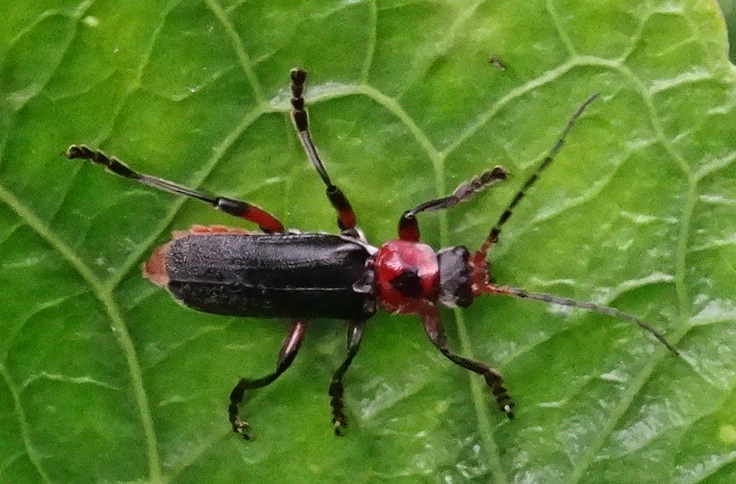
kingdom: Animalia
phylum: Arthropoda
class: Insecta
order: Coleoptera
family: Cantharidae
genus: Cantharis
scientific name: Cantharis rustica
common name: Soldier beetle
